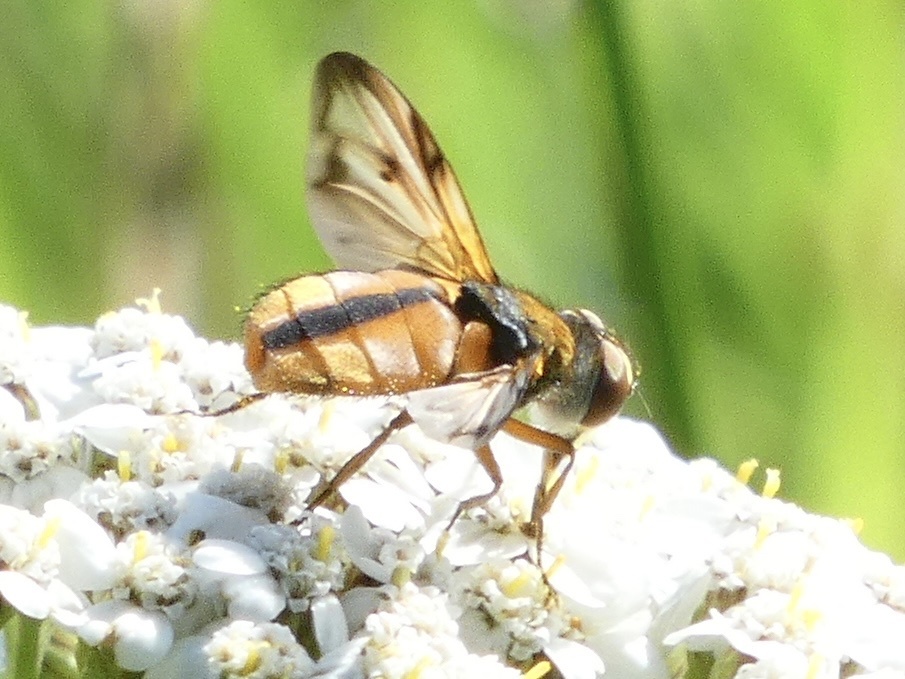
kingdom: Animalia
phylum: Arthropoda
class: Insecta
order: Diptera
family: Tachinidae
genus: Ectophasia
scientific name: Ectophasia crassipennis
